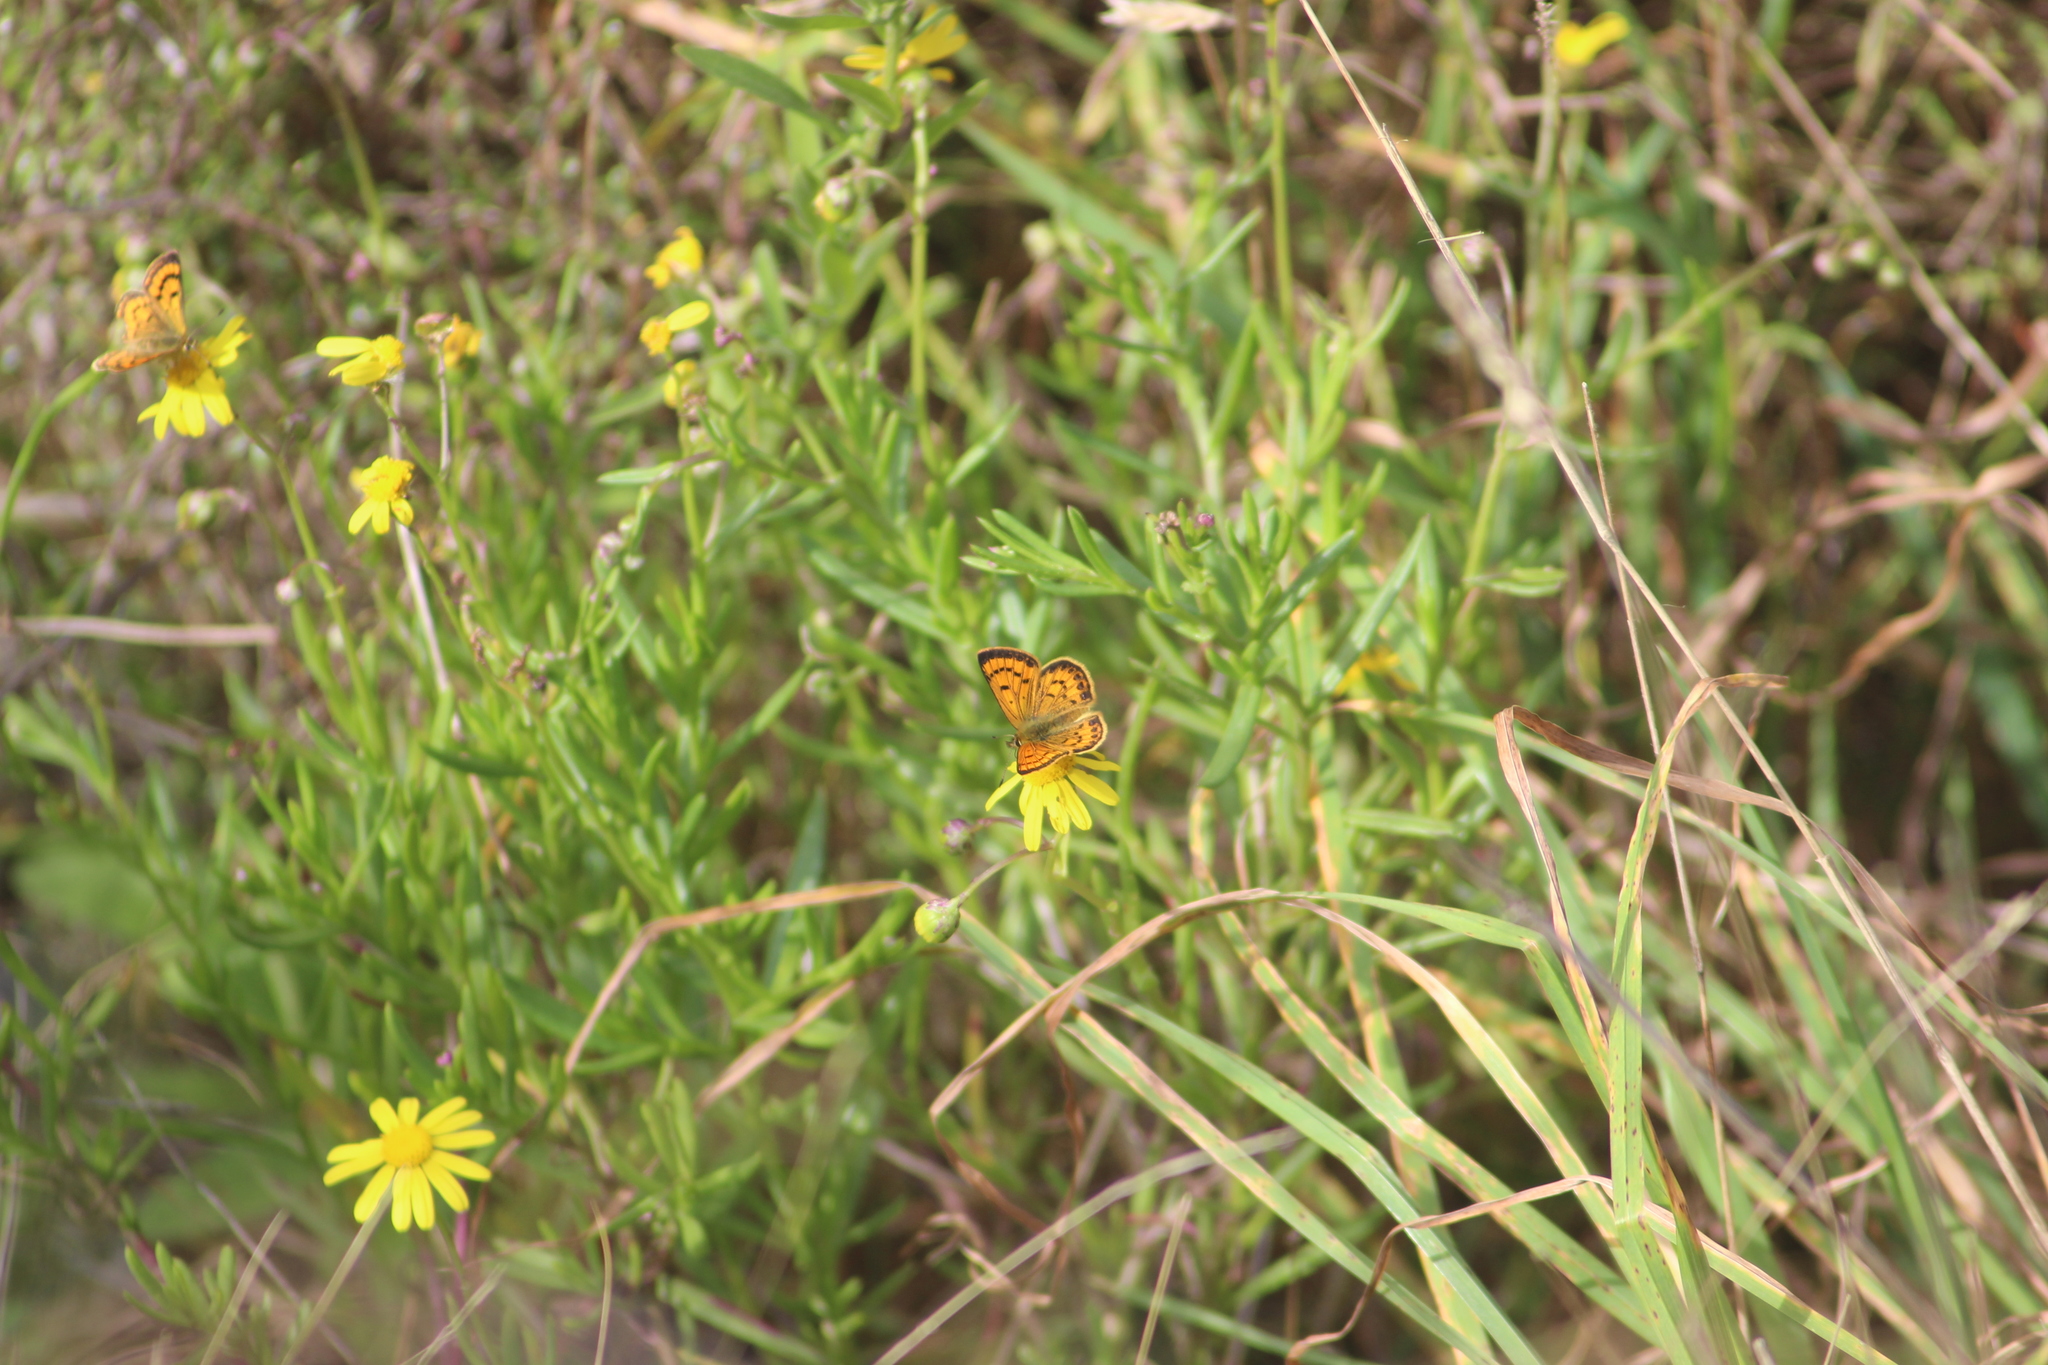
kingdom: Plantae
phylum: Tracheophyta
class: Magnoliopsida
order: Asterales
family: Asteraceae
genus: Senecio
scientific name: Senecio skirrhodon
